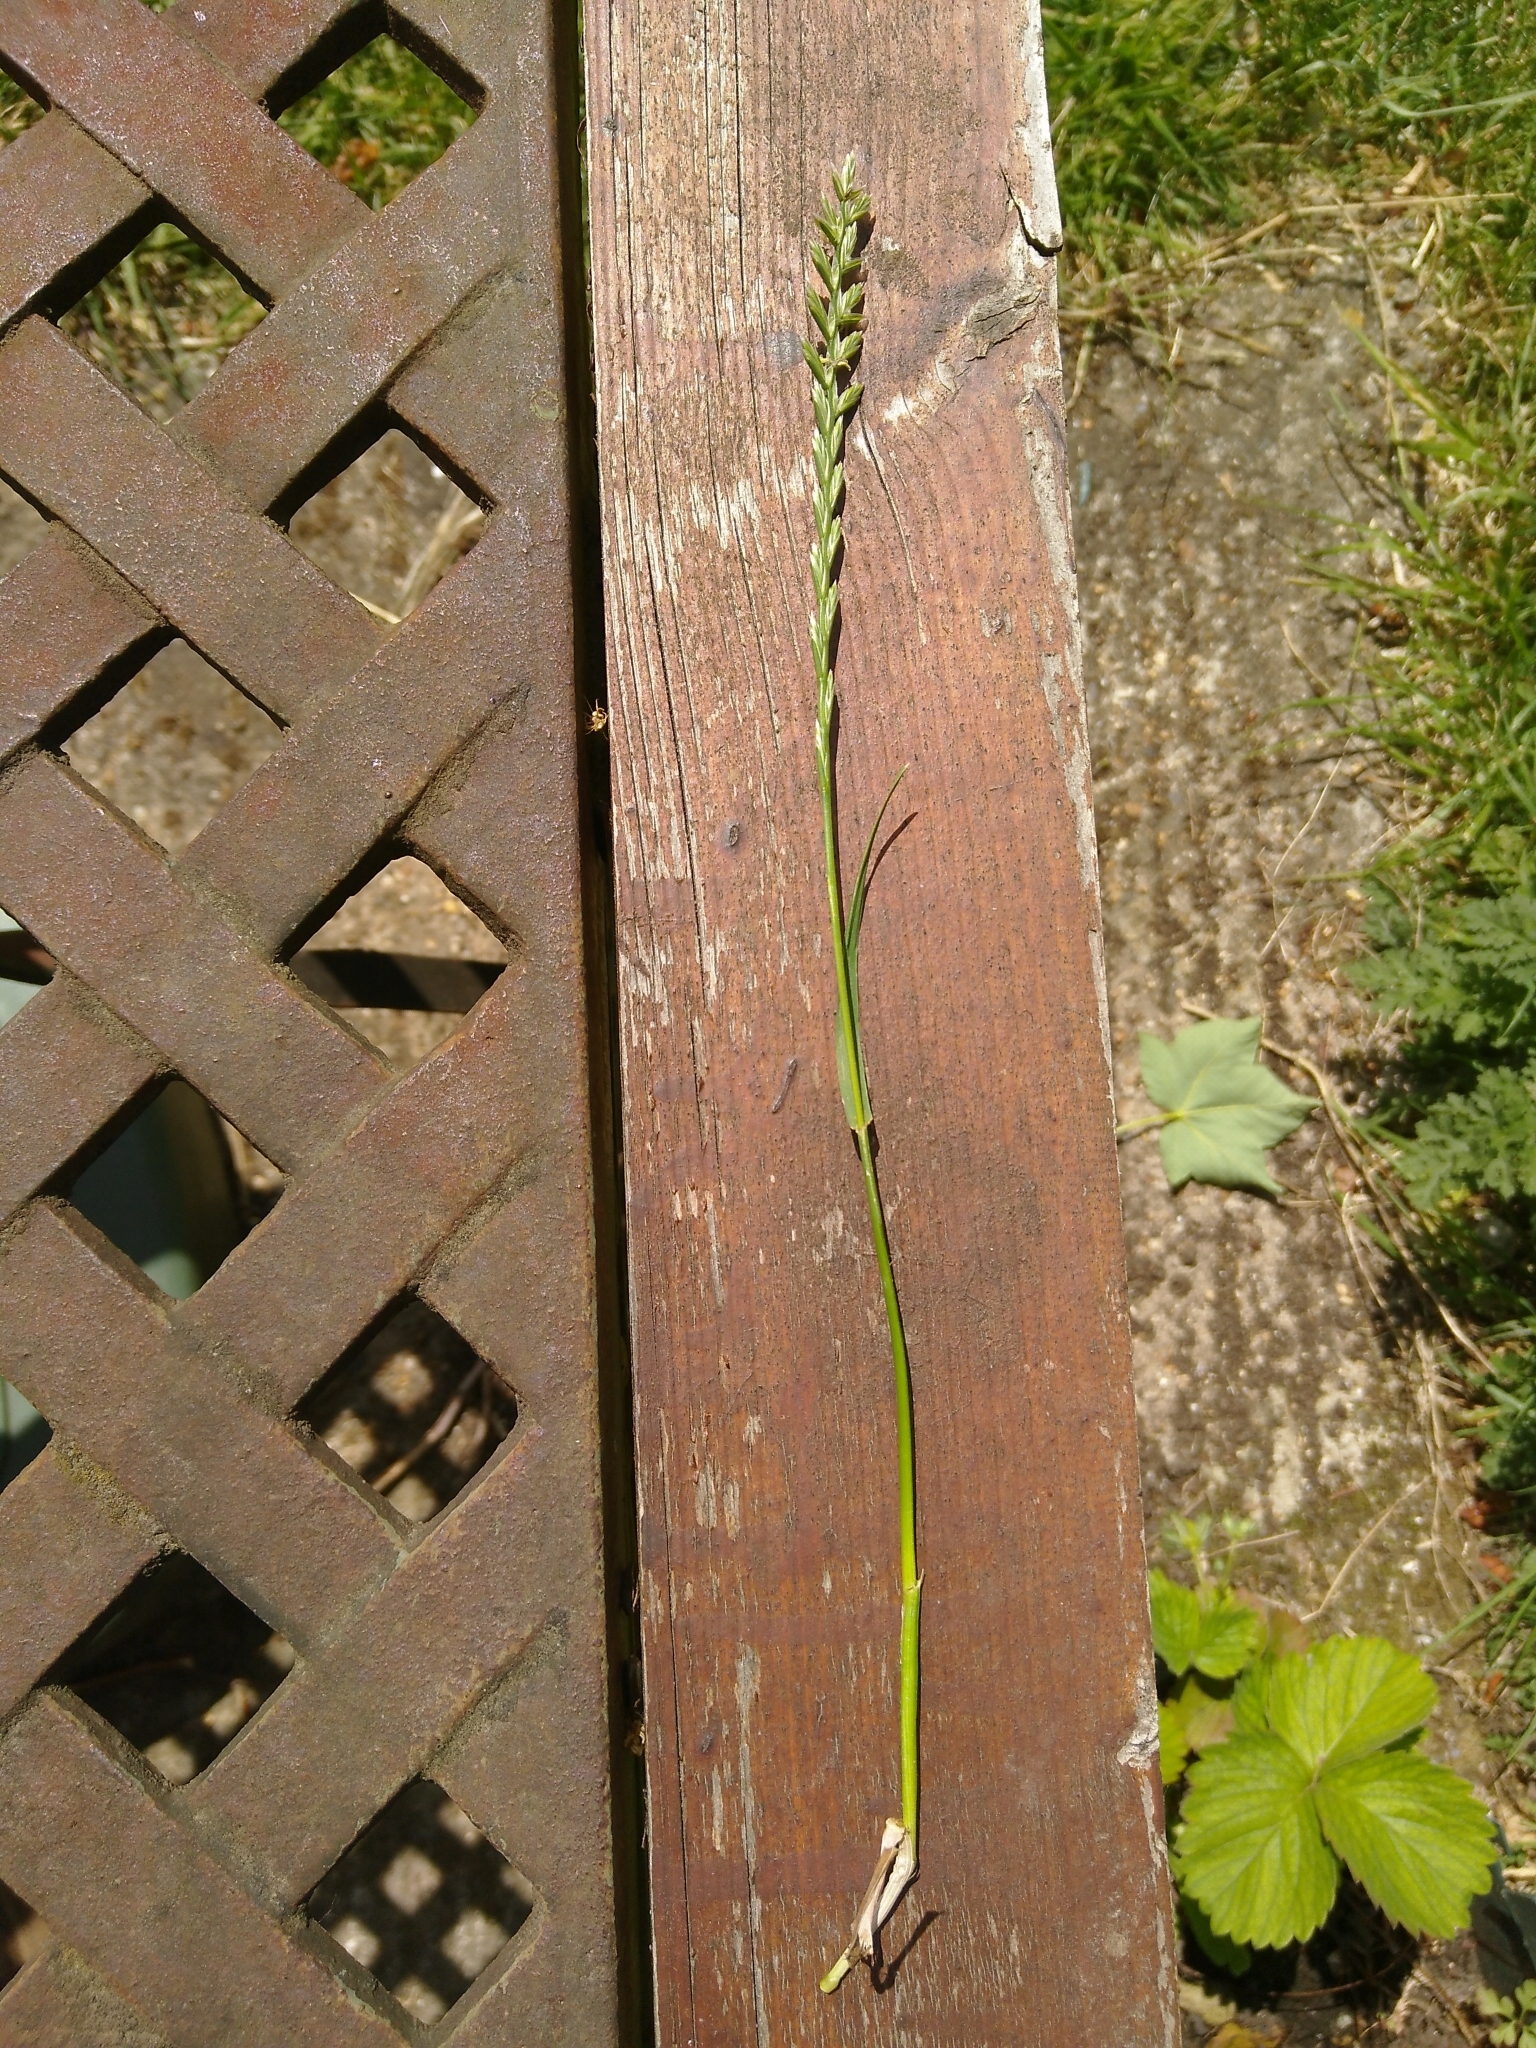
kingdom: Plantae
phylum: Tracheophyta
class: Liliopsida
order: Poales
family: Poaceae
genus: Lolium
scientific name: Lolium perenne
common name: Perennial ryegrass
